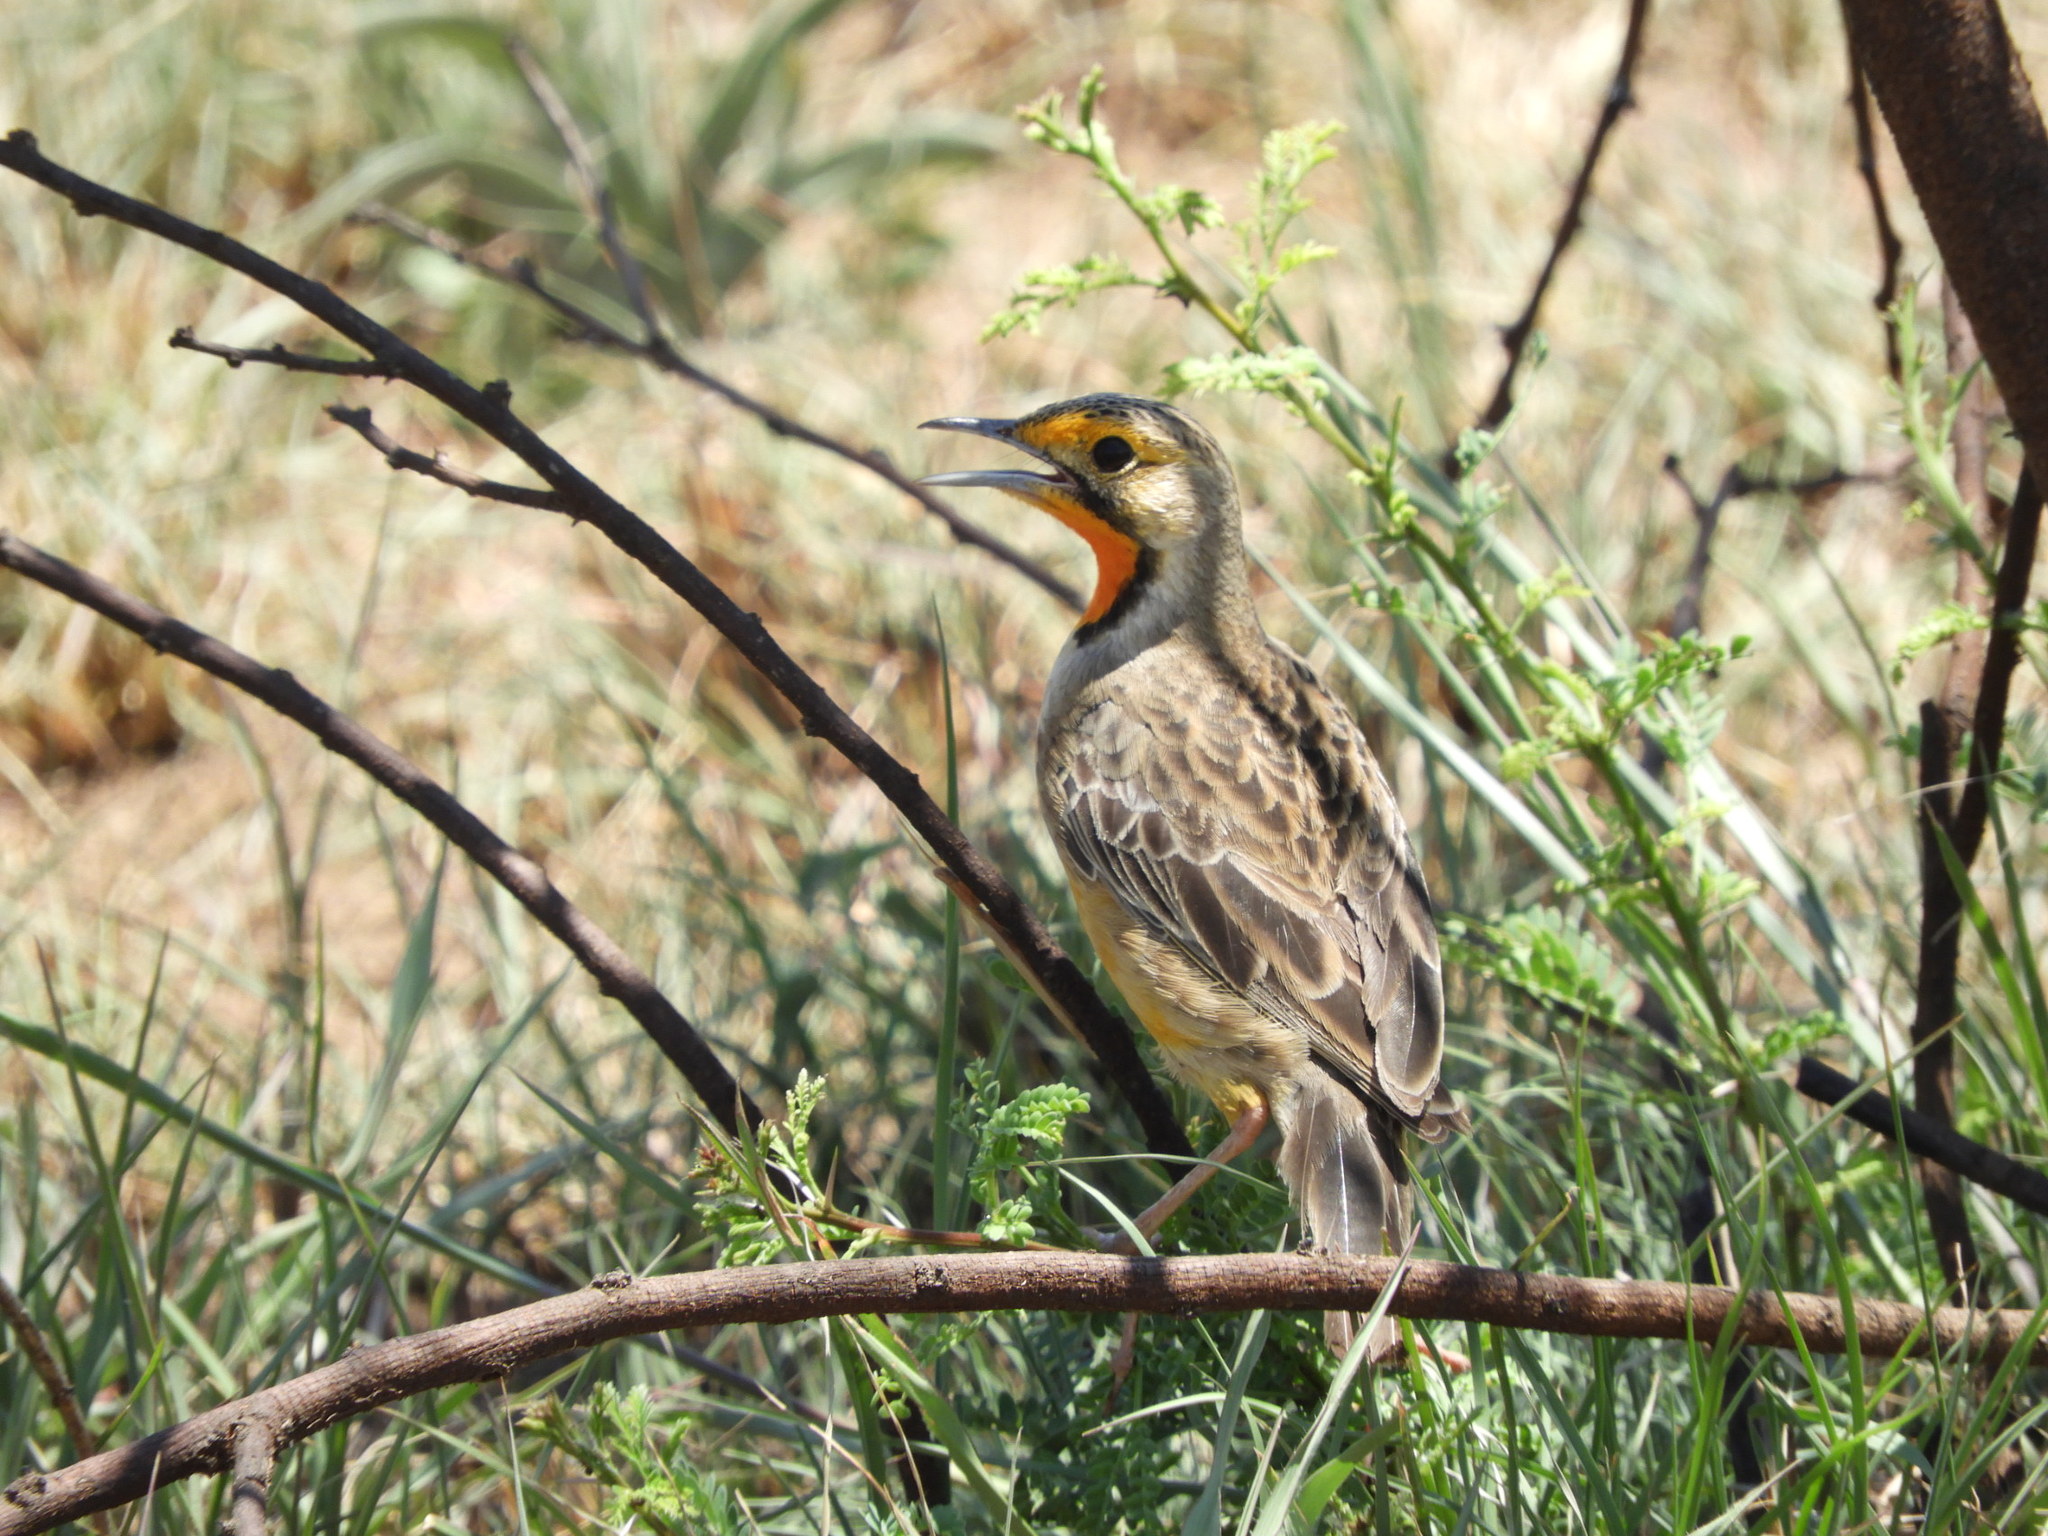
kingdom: Animalia
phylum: Chordata
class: Aves
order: Passeriformes
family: Motacillidae
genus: Macronyx
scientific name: Macronyx capensis
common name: Cape longclaw
